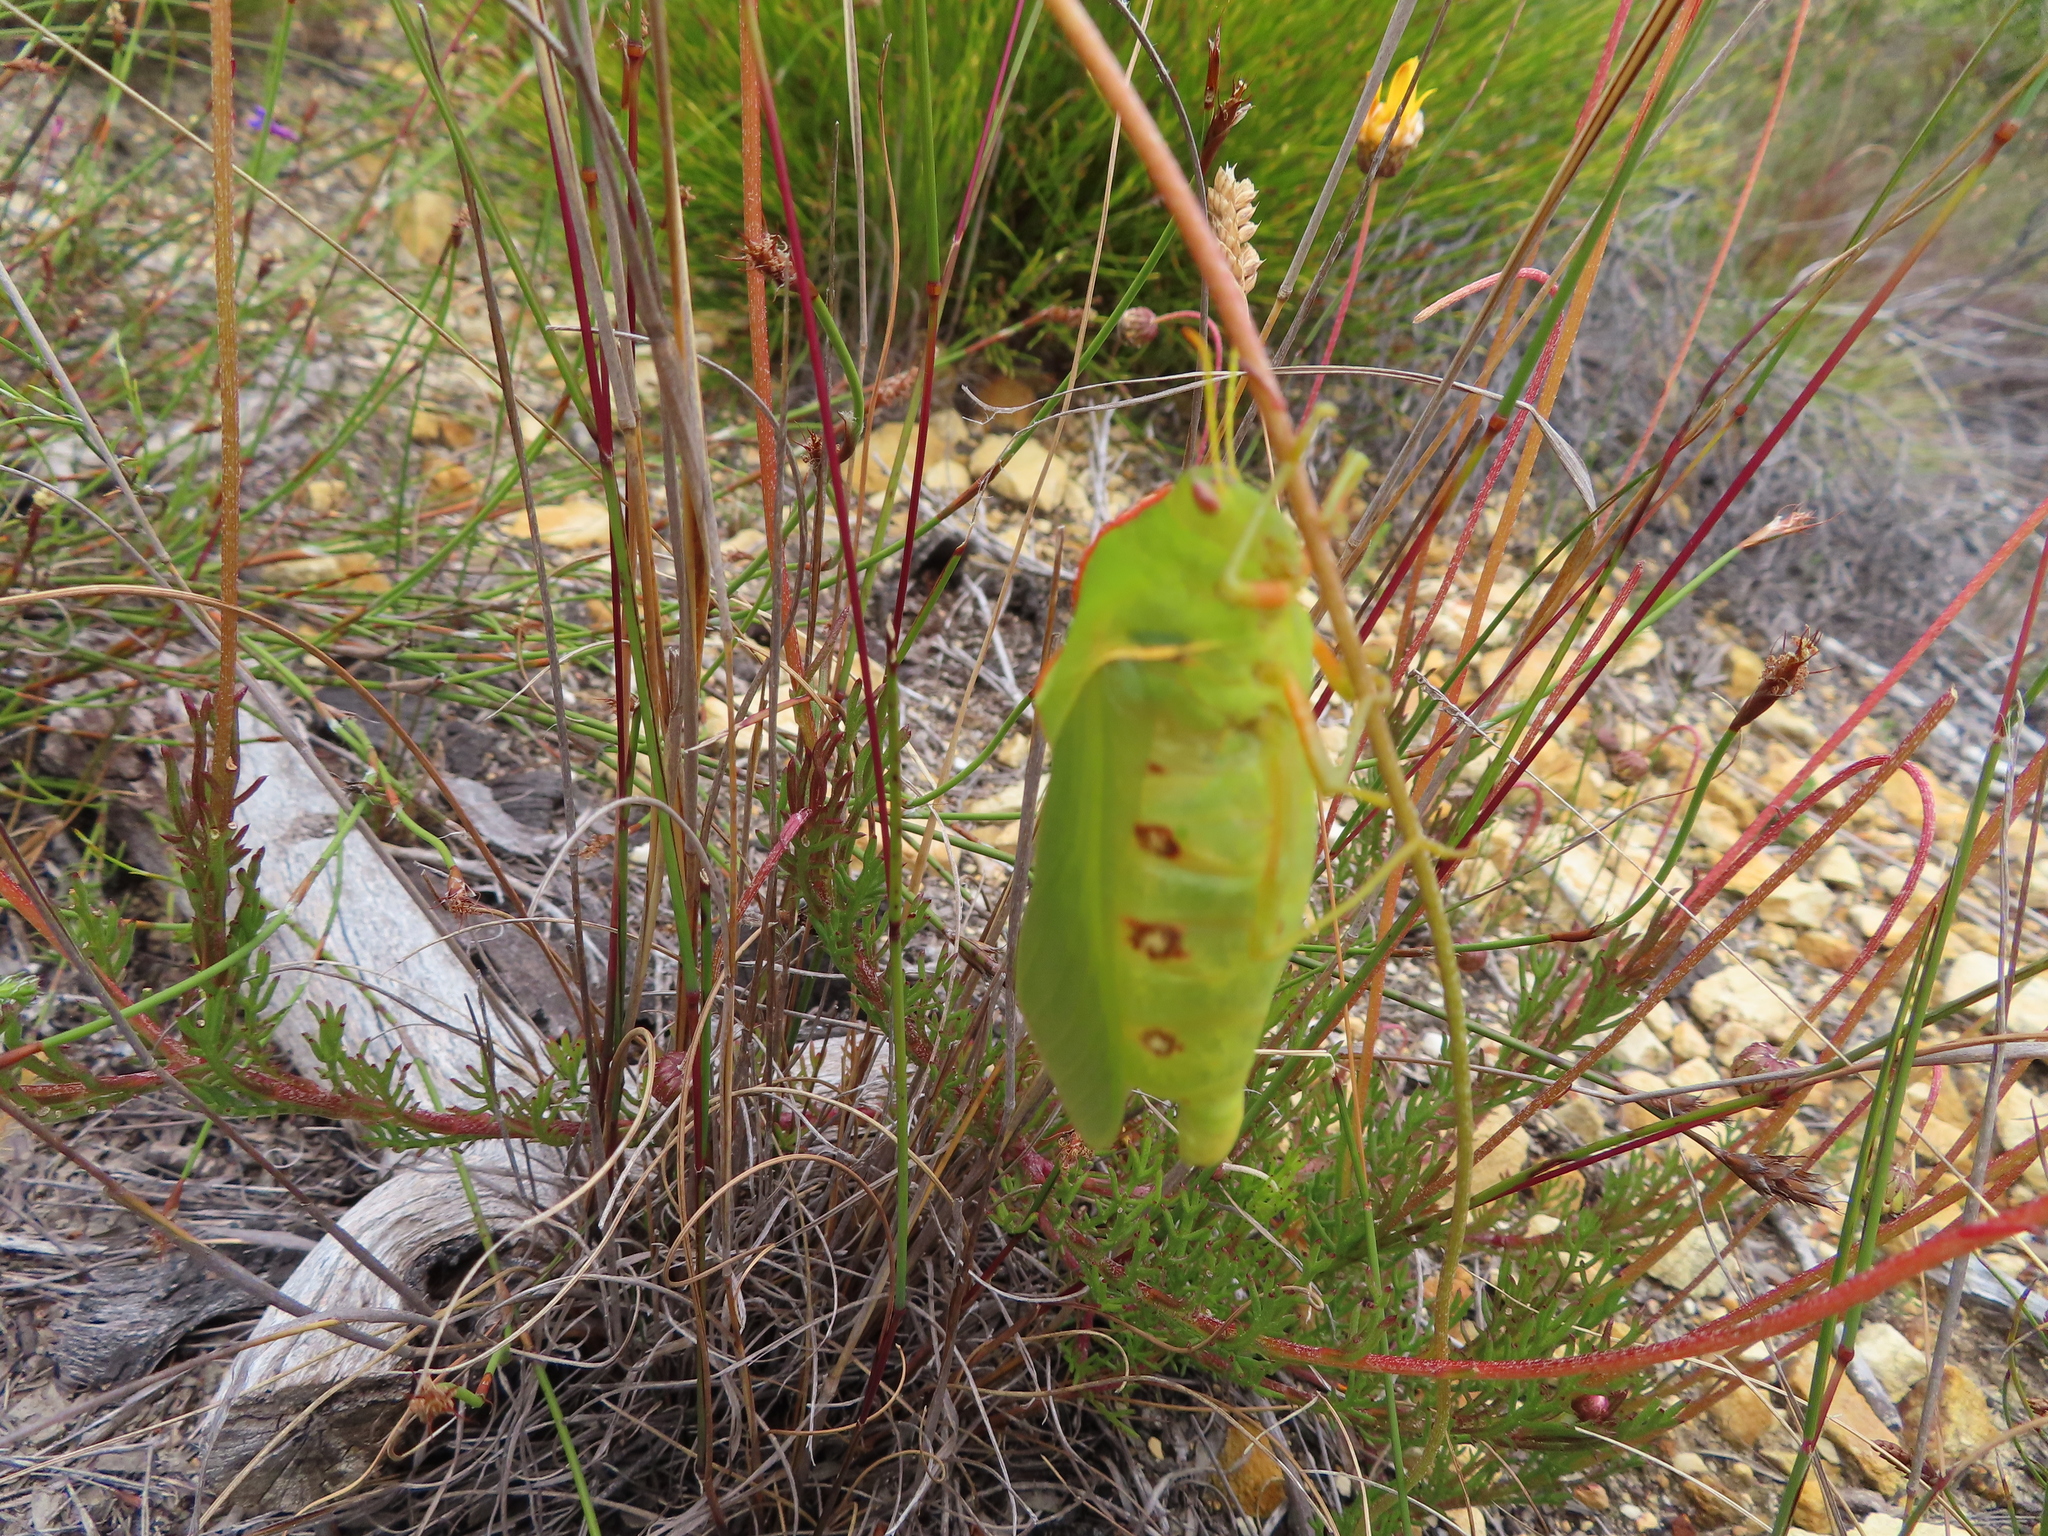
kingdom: Animalia
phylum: Arthropoda
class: Insecta
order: Orthoptera
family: Pneumoridae
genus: Bullacris
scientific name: Bullacris discolor
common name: Bladder grasshopper
